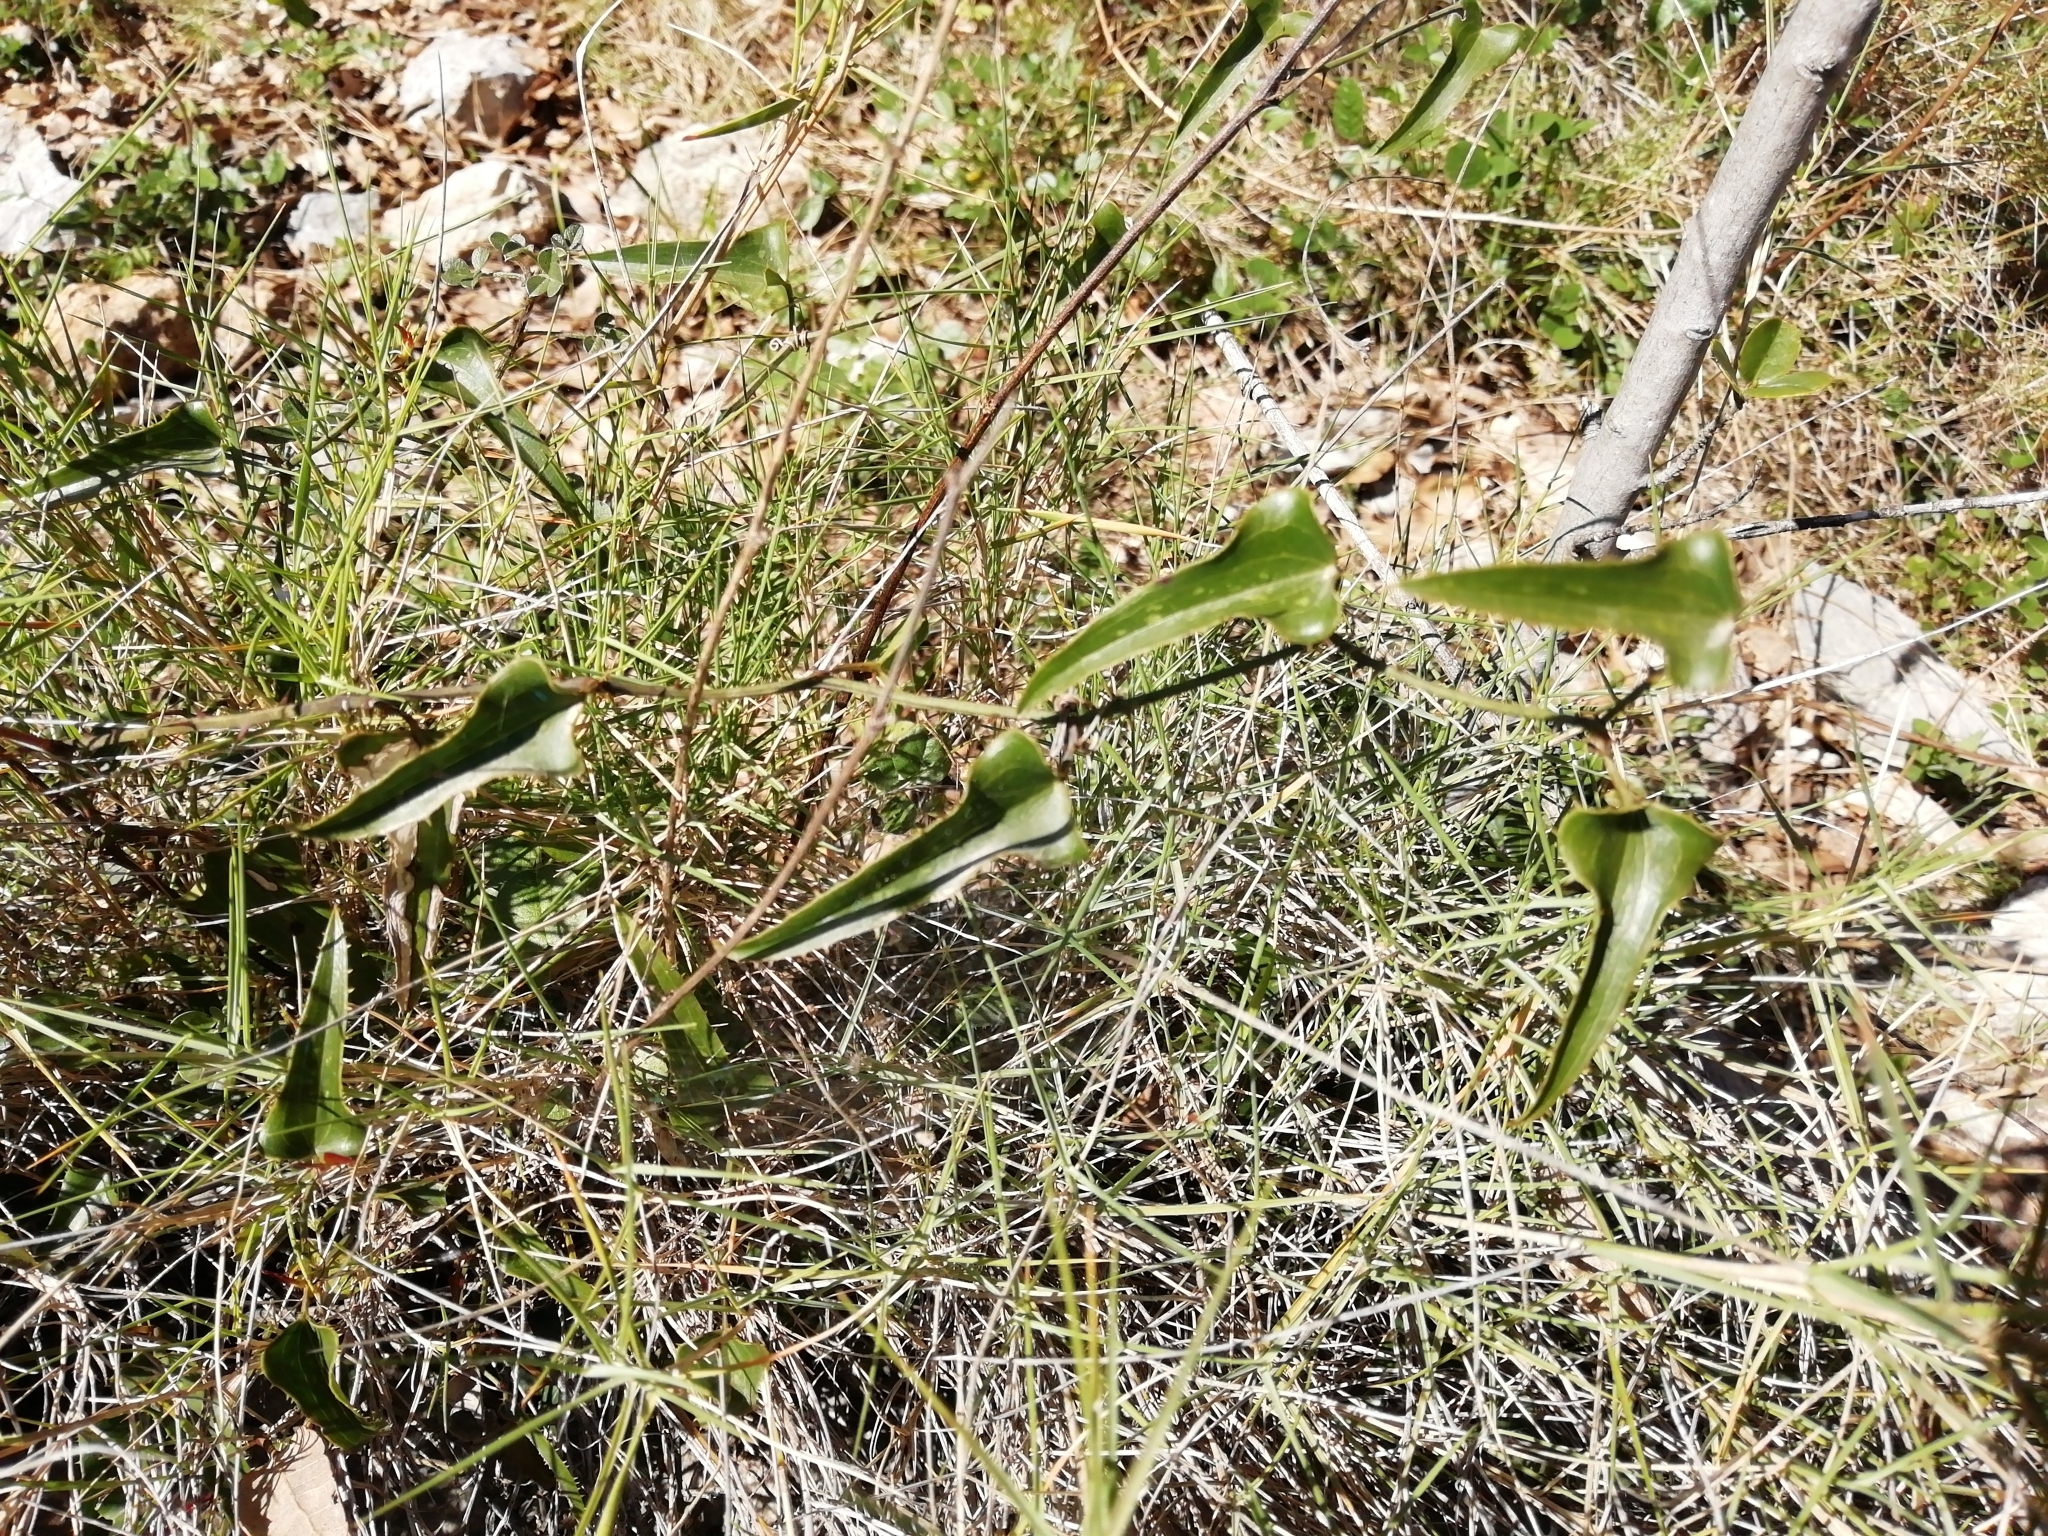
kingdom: Plantae
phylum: Tracheophyta
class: Liliopsida
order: Liliales
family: Smilacaceae
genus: Smilax
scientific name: Smilax aspera
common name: Common smilax
